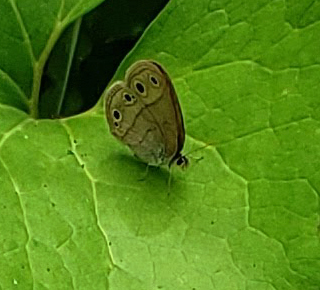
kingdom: Animalia
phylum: Arthropoda
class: Insecta
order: Lepidoptera
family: Nymphalidae
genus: Euptychia
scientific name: Euptychia cymela
